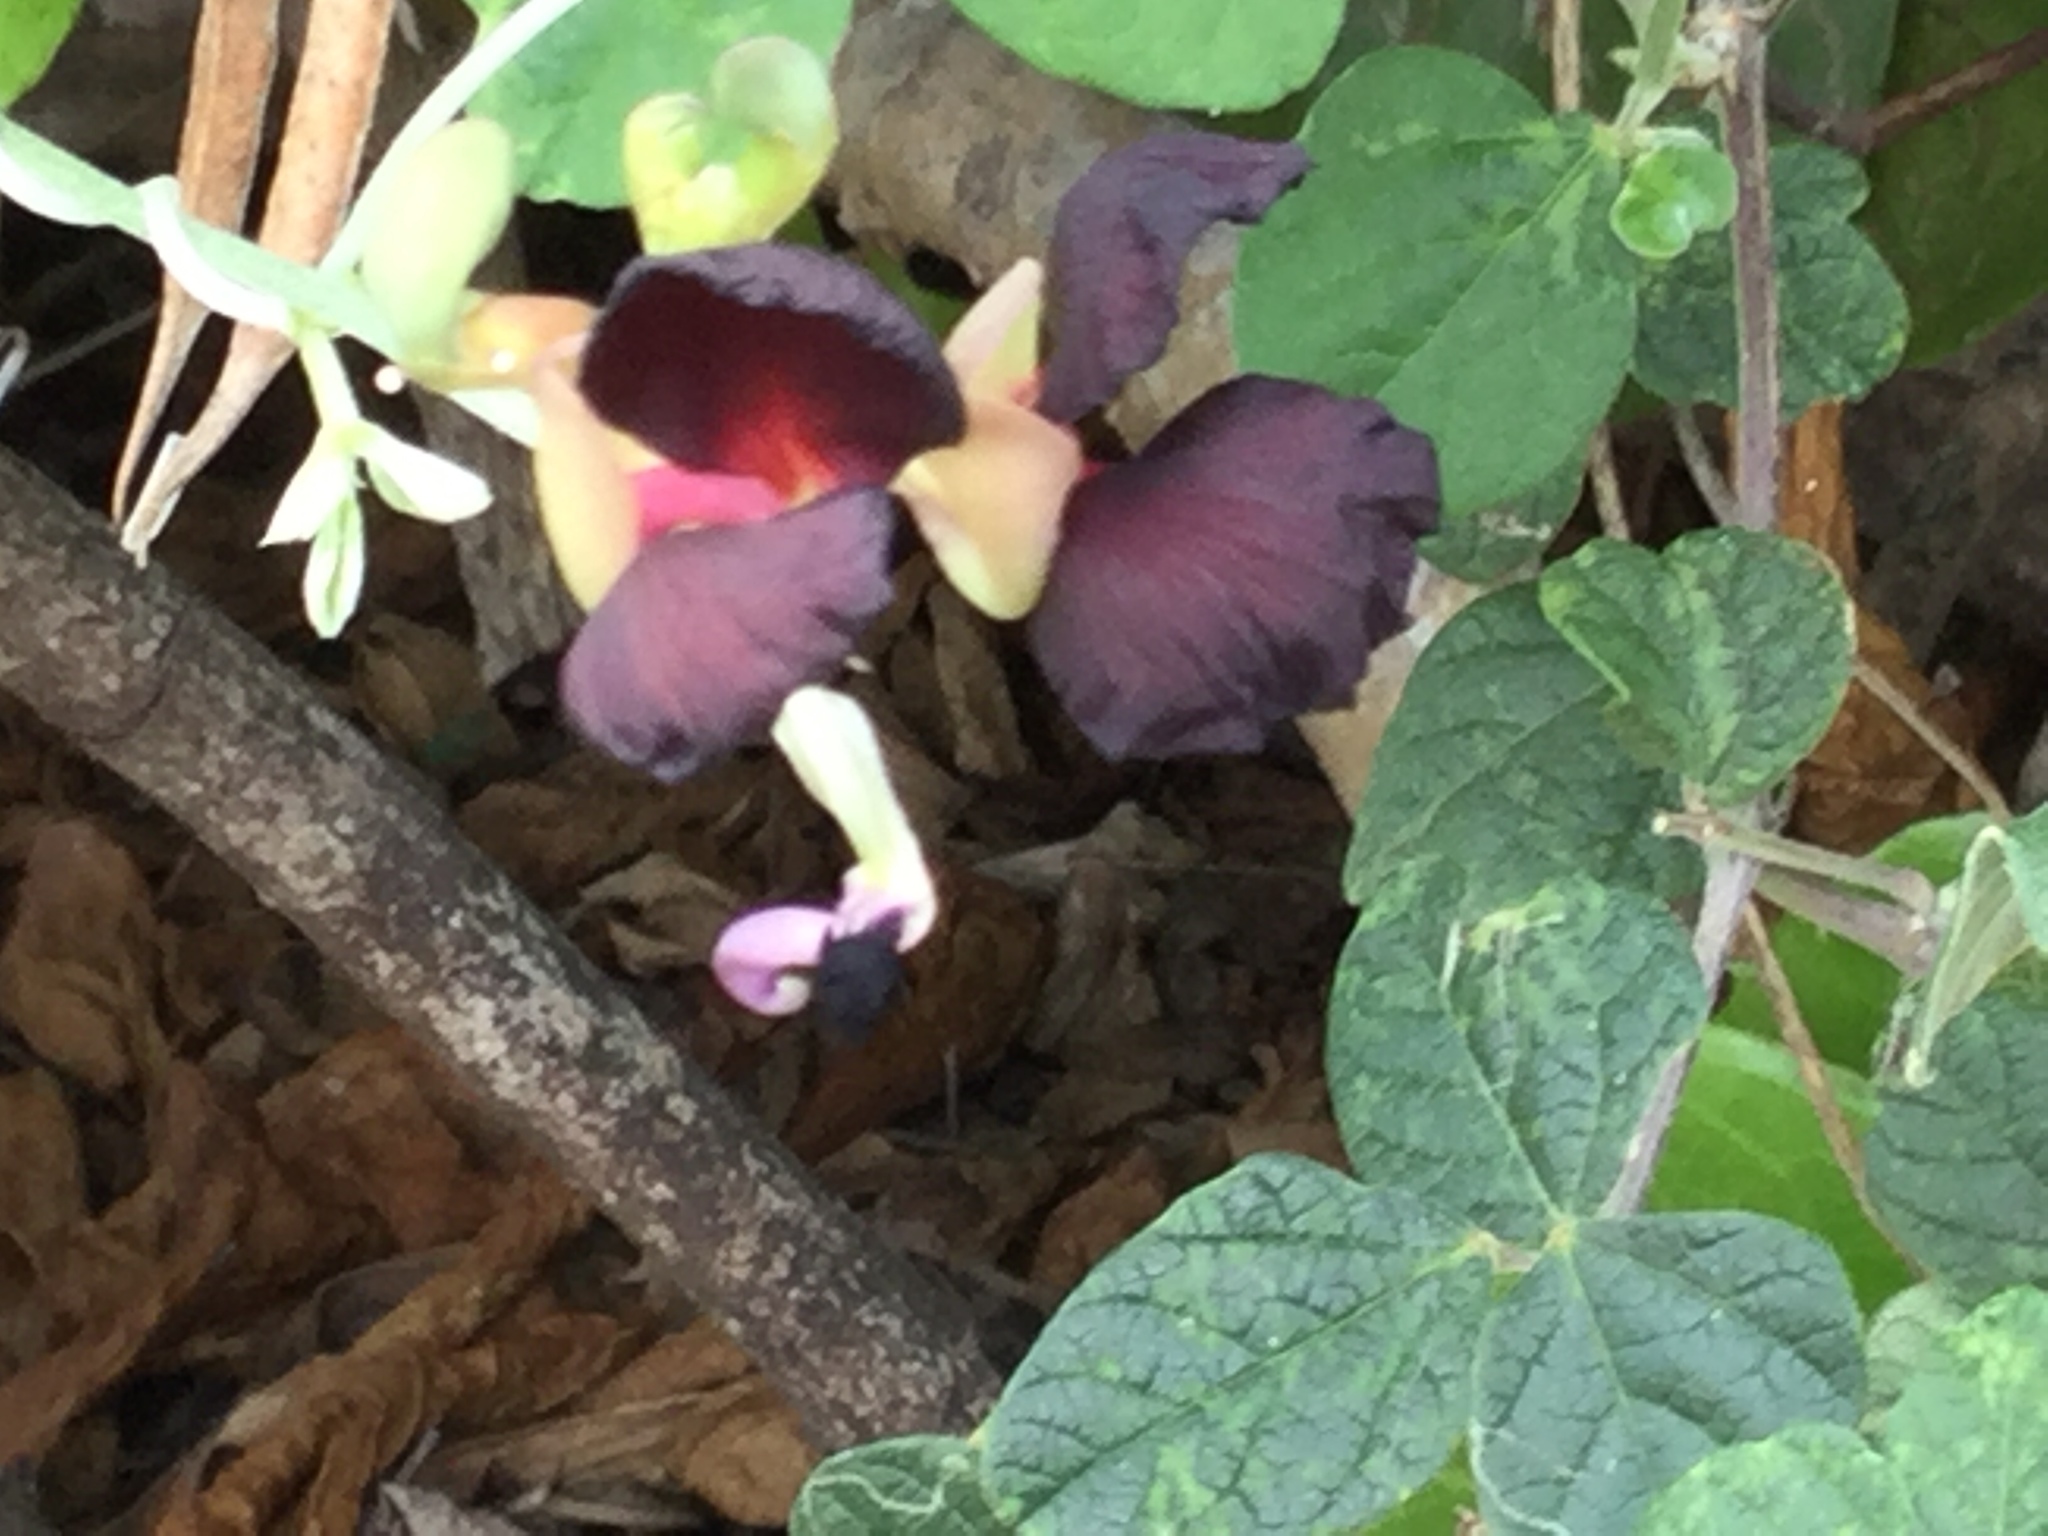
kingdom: Plantae
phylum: Tracheophyta
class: Magnoliopsida
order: Fabales
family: Fabaceae
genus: Macroptilium
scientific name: Macroptilium atropurpureum
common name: Purple bushbean
